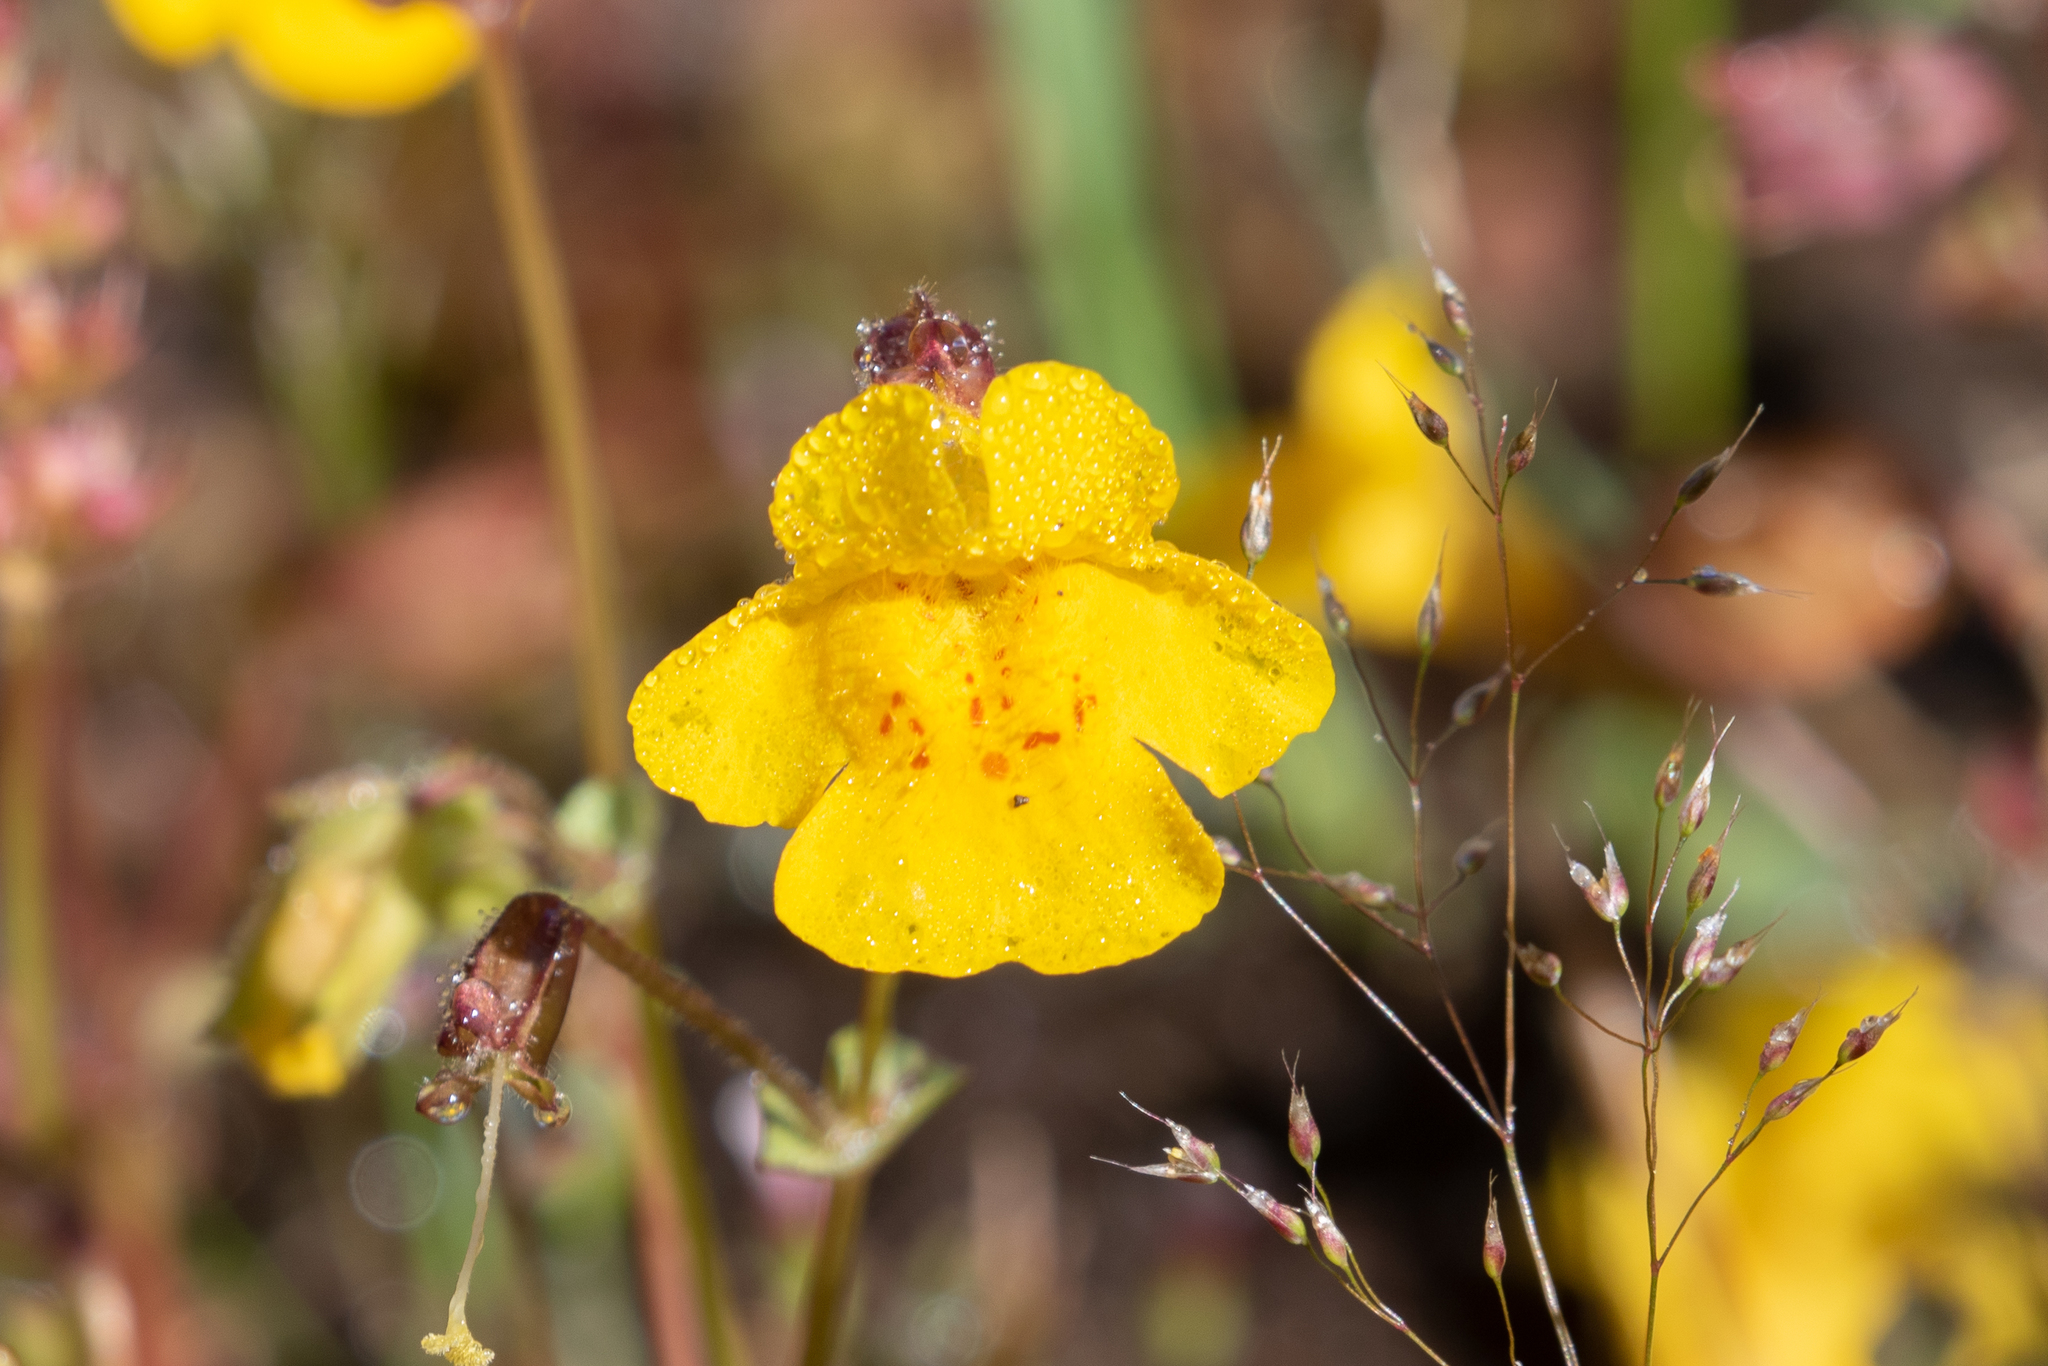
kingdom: Plantae
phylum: Tracheophyta
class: Magnoliopsida
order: Lamiales
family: Phrymaceae
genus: Erythranthe
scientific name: Erythranthe guttata
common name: Monkeyflower
